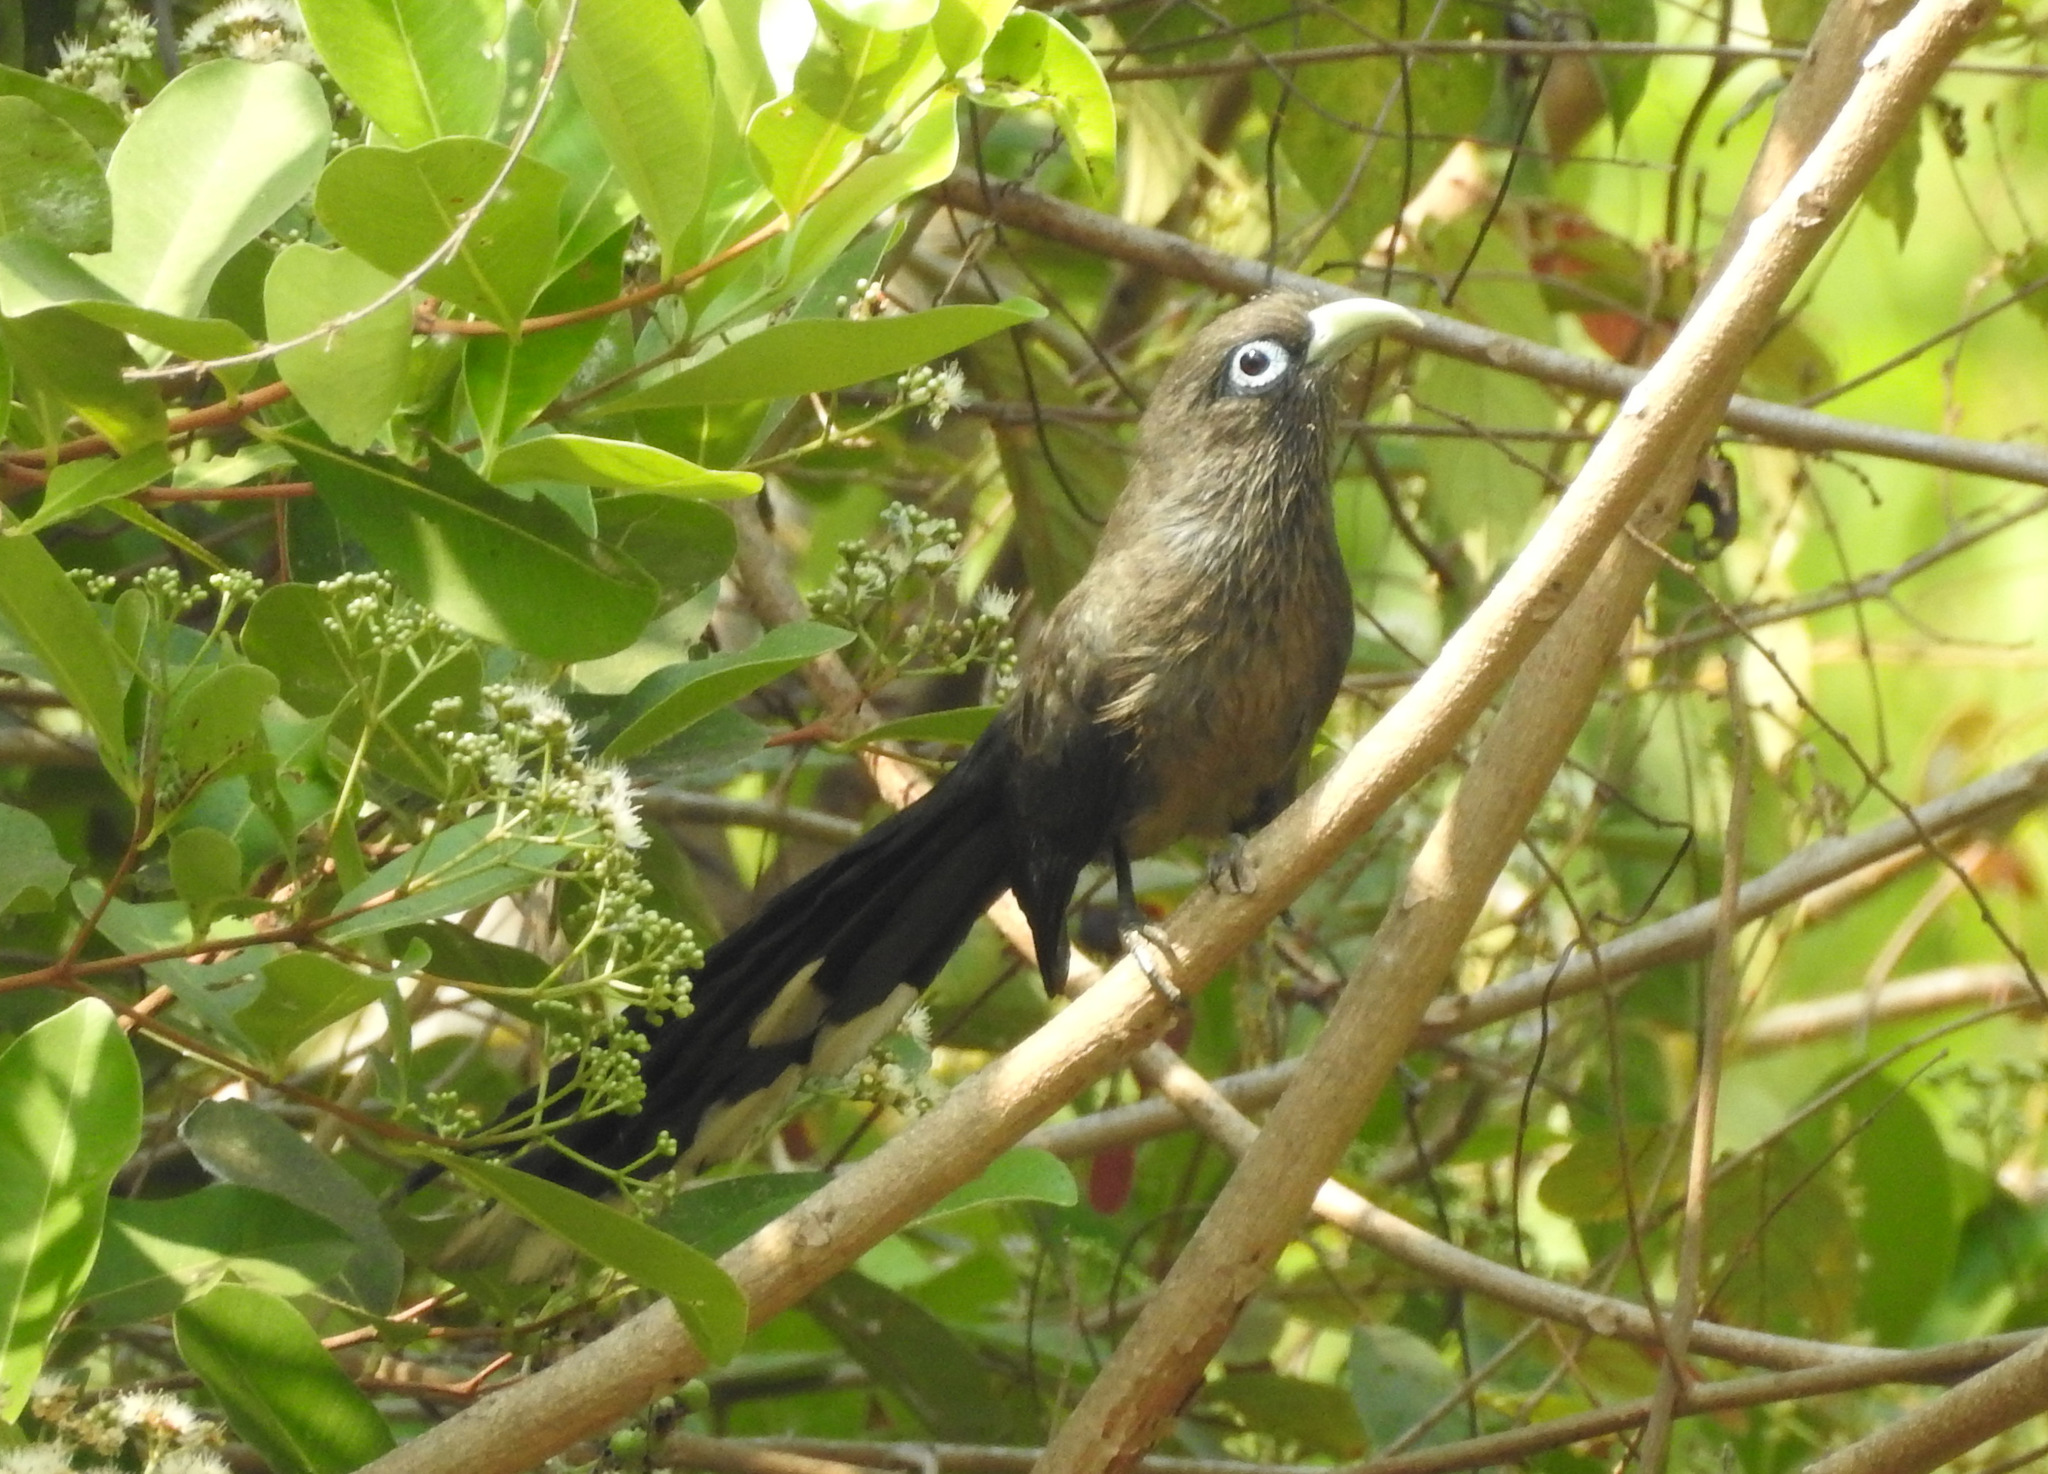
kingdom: Animalia
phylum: Chordata
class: Aves
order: Cuculiformes
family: Cuculidae
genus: Rhopodytes
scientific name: Rhopodytes viridirostris
